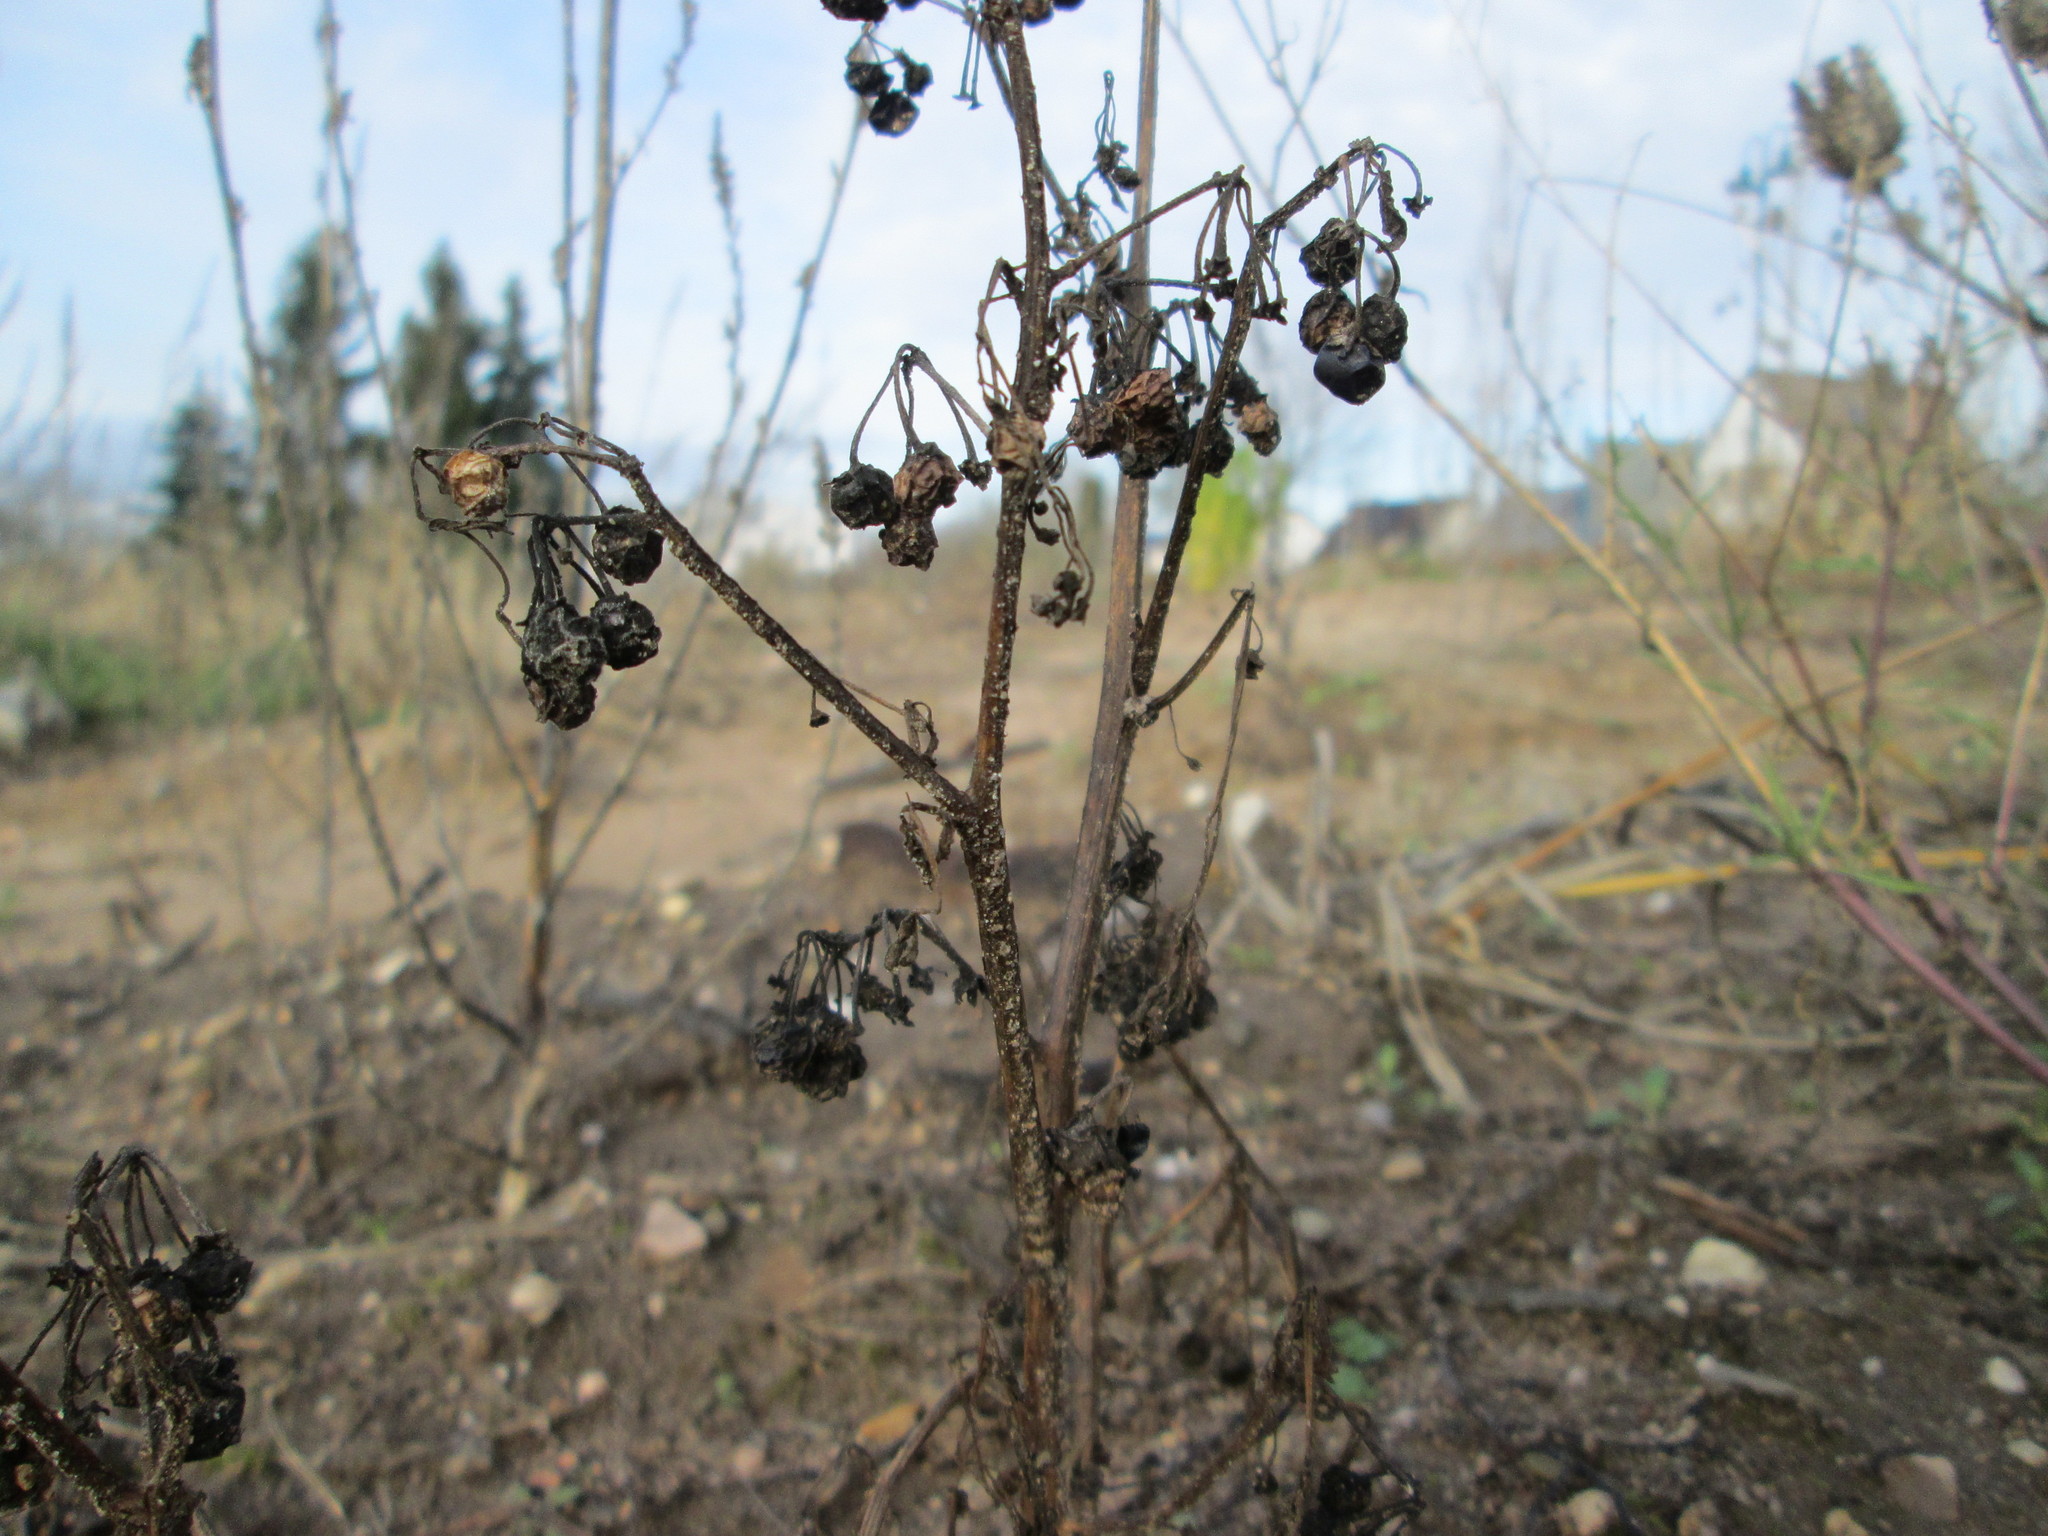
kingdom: Plantae
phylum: Tracheophyta
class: Magnoliopsida
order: Solanales
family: Solanaceae
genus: Solanum
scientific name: Solanum nigrum
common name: Black nightshade
